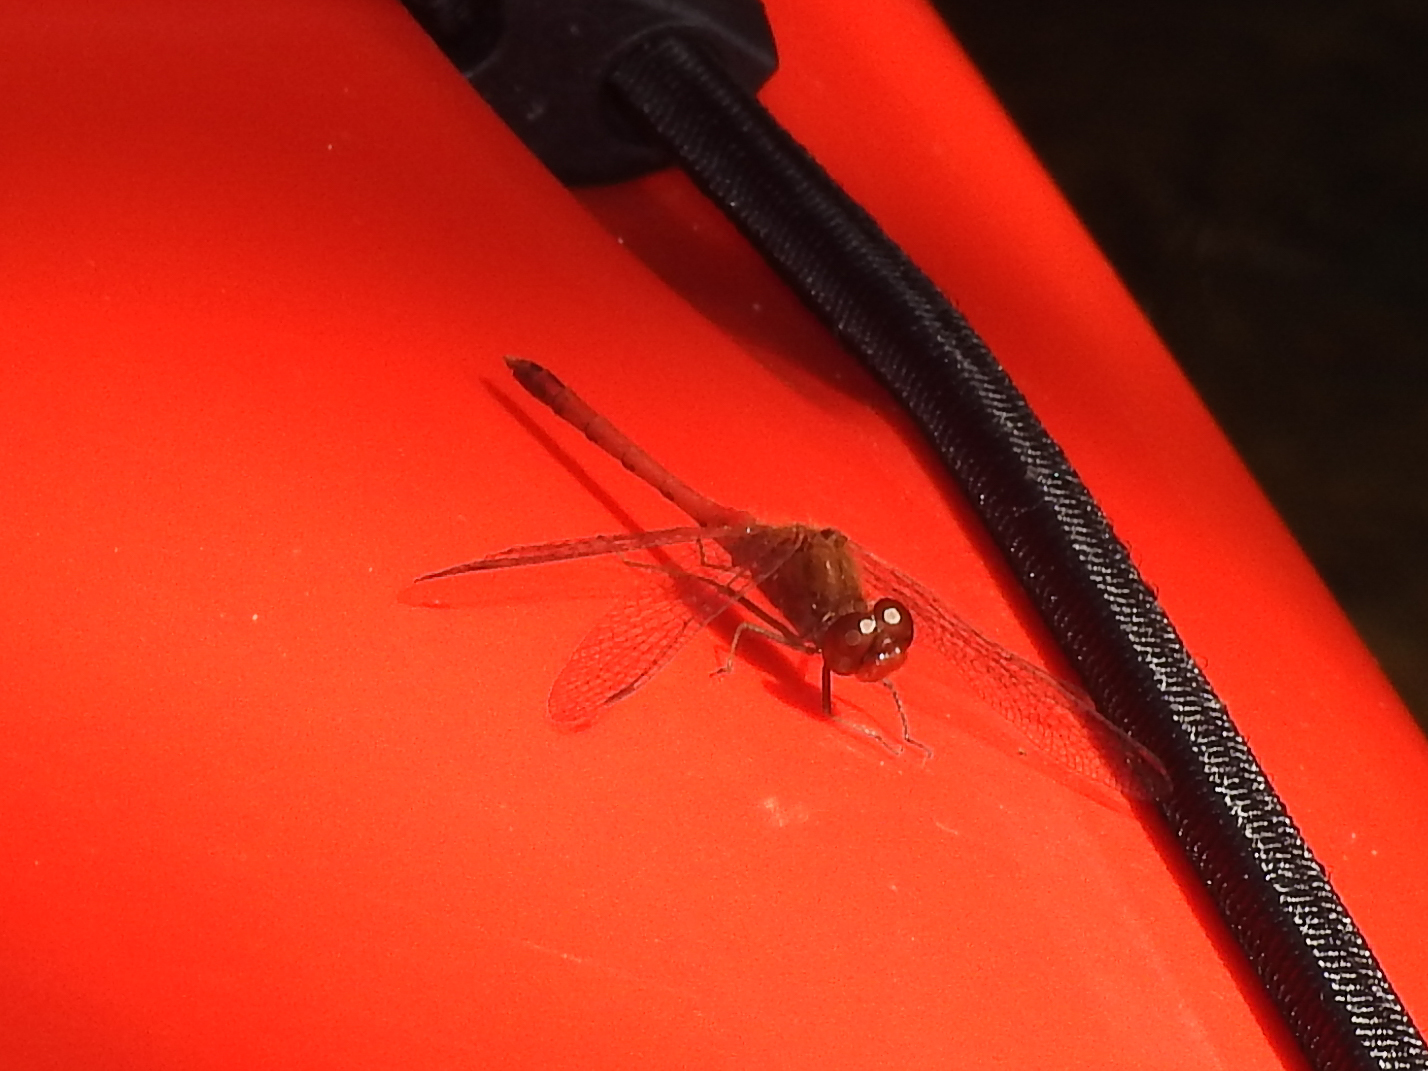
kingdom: Animalia
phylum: Arthropoda
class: Insecta
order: Odonata
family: Libellulidae
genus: Sympetrum
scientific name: Sympetrum vicinum
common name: Autumn meadowhawk
